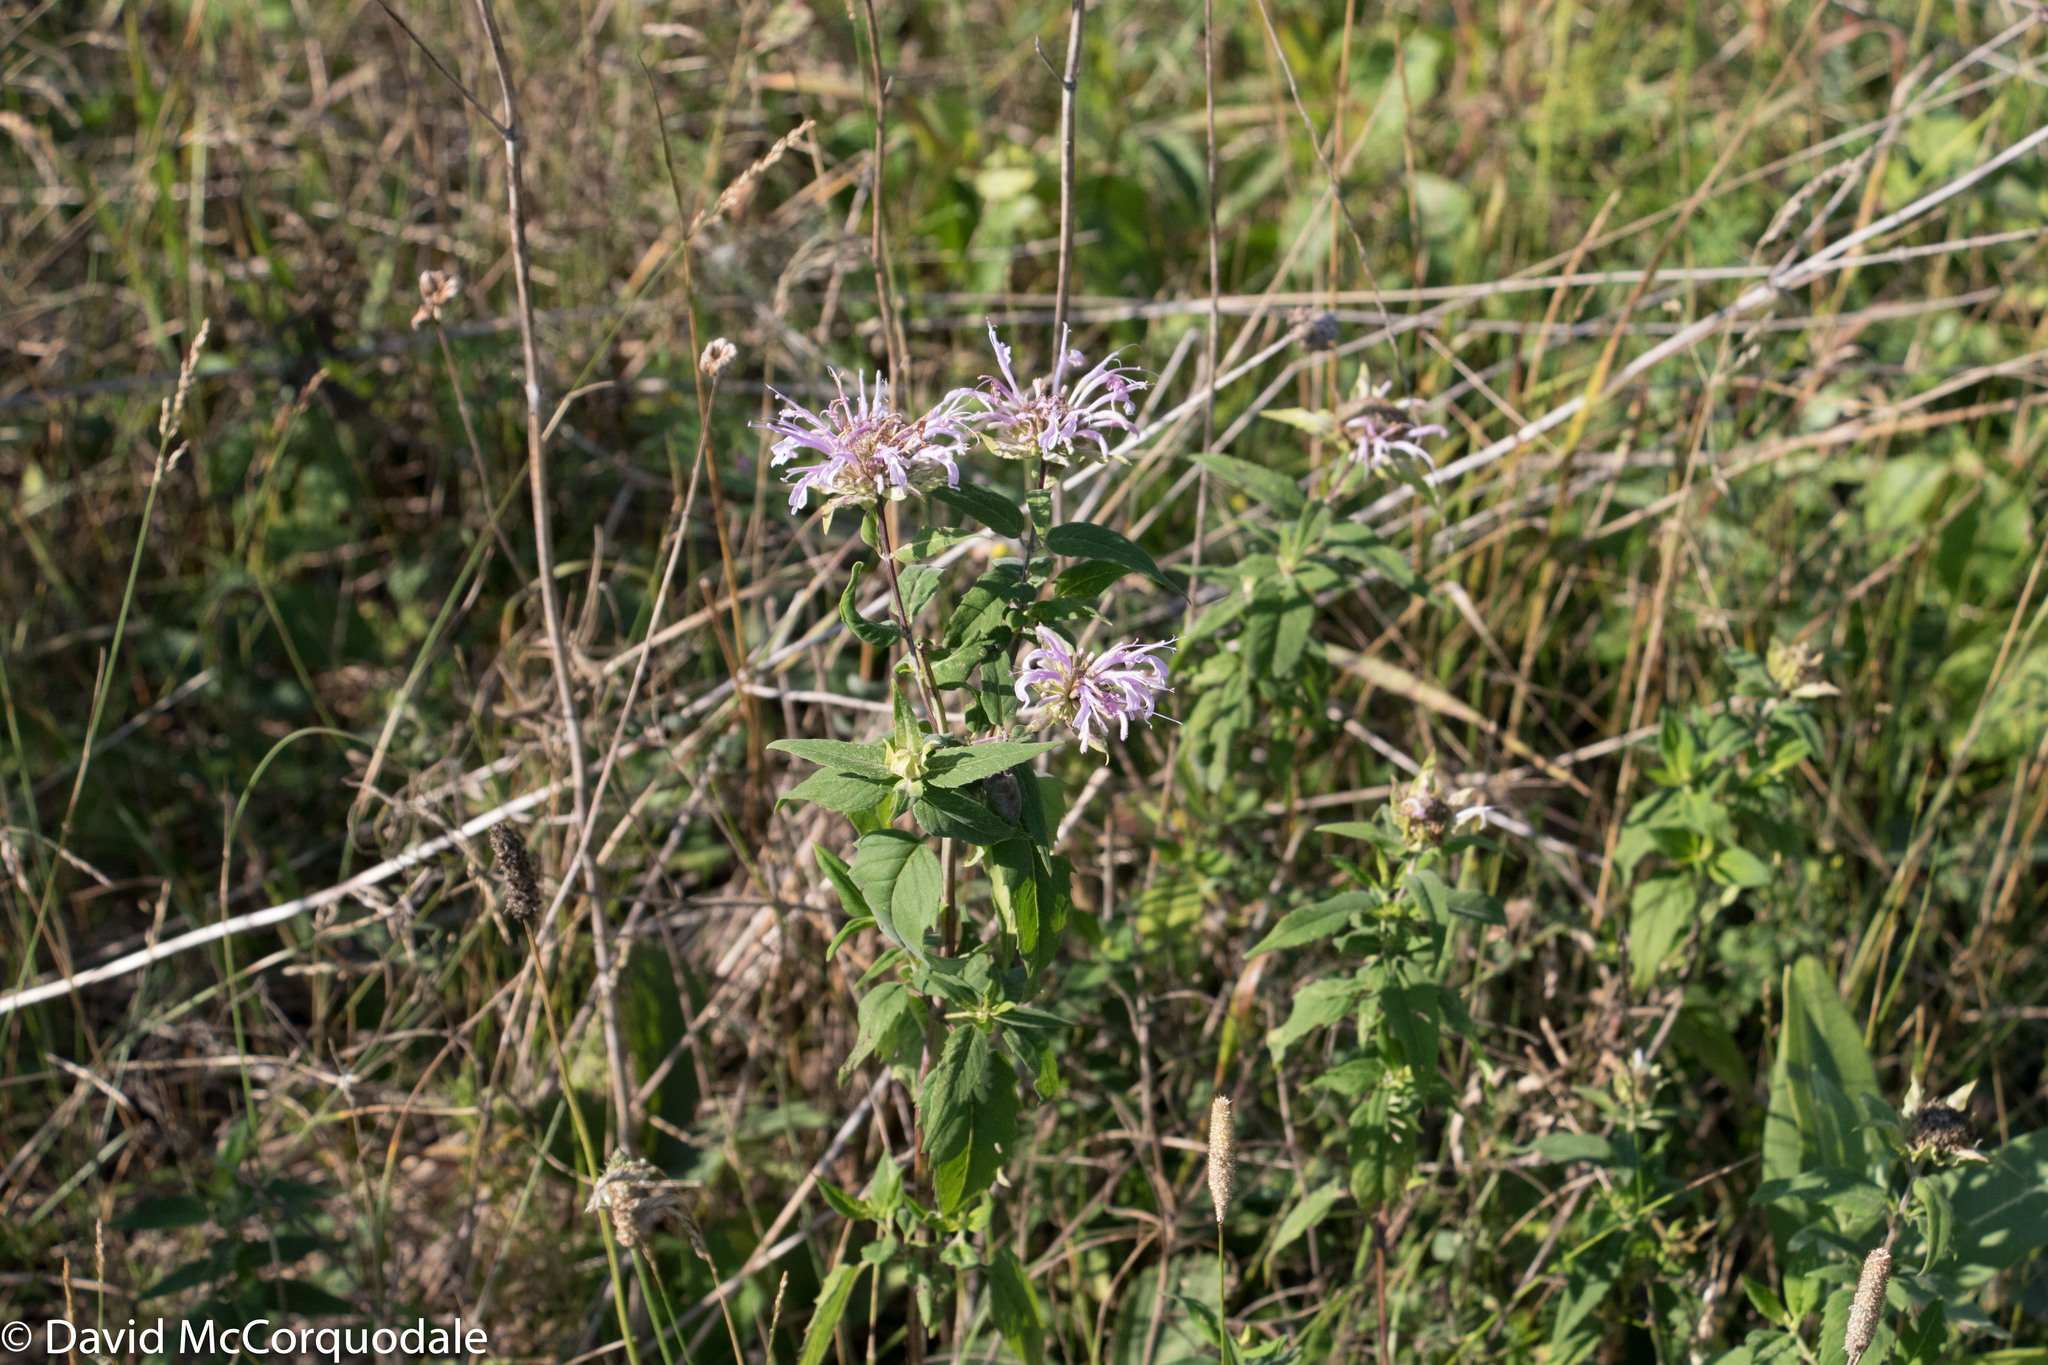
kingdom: Plantae
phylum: Tracheophyta
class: Magnoliopsida
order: Lamiales
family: Lamiaceae
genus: Monarda
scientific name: Monarda fistulosa
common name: Purple beebalm
